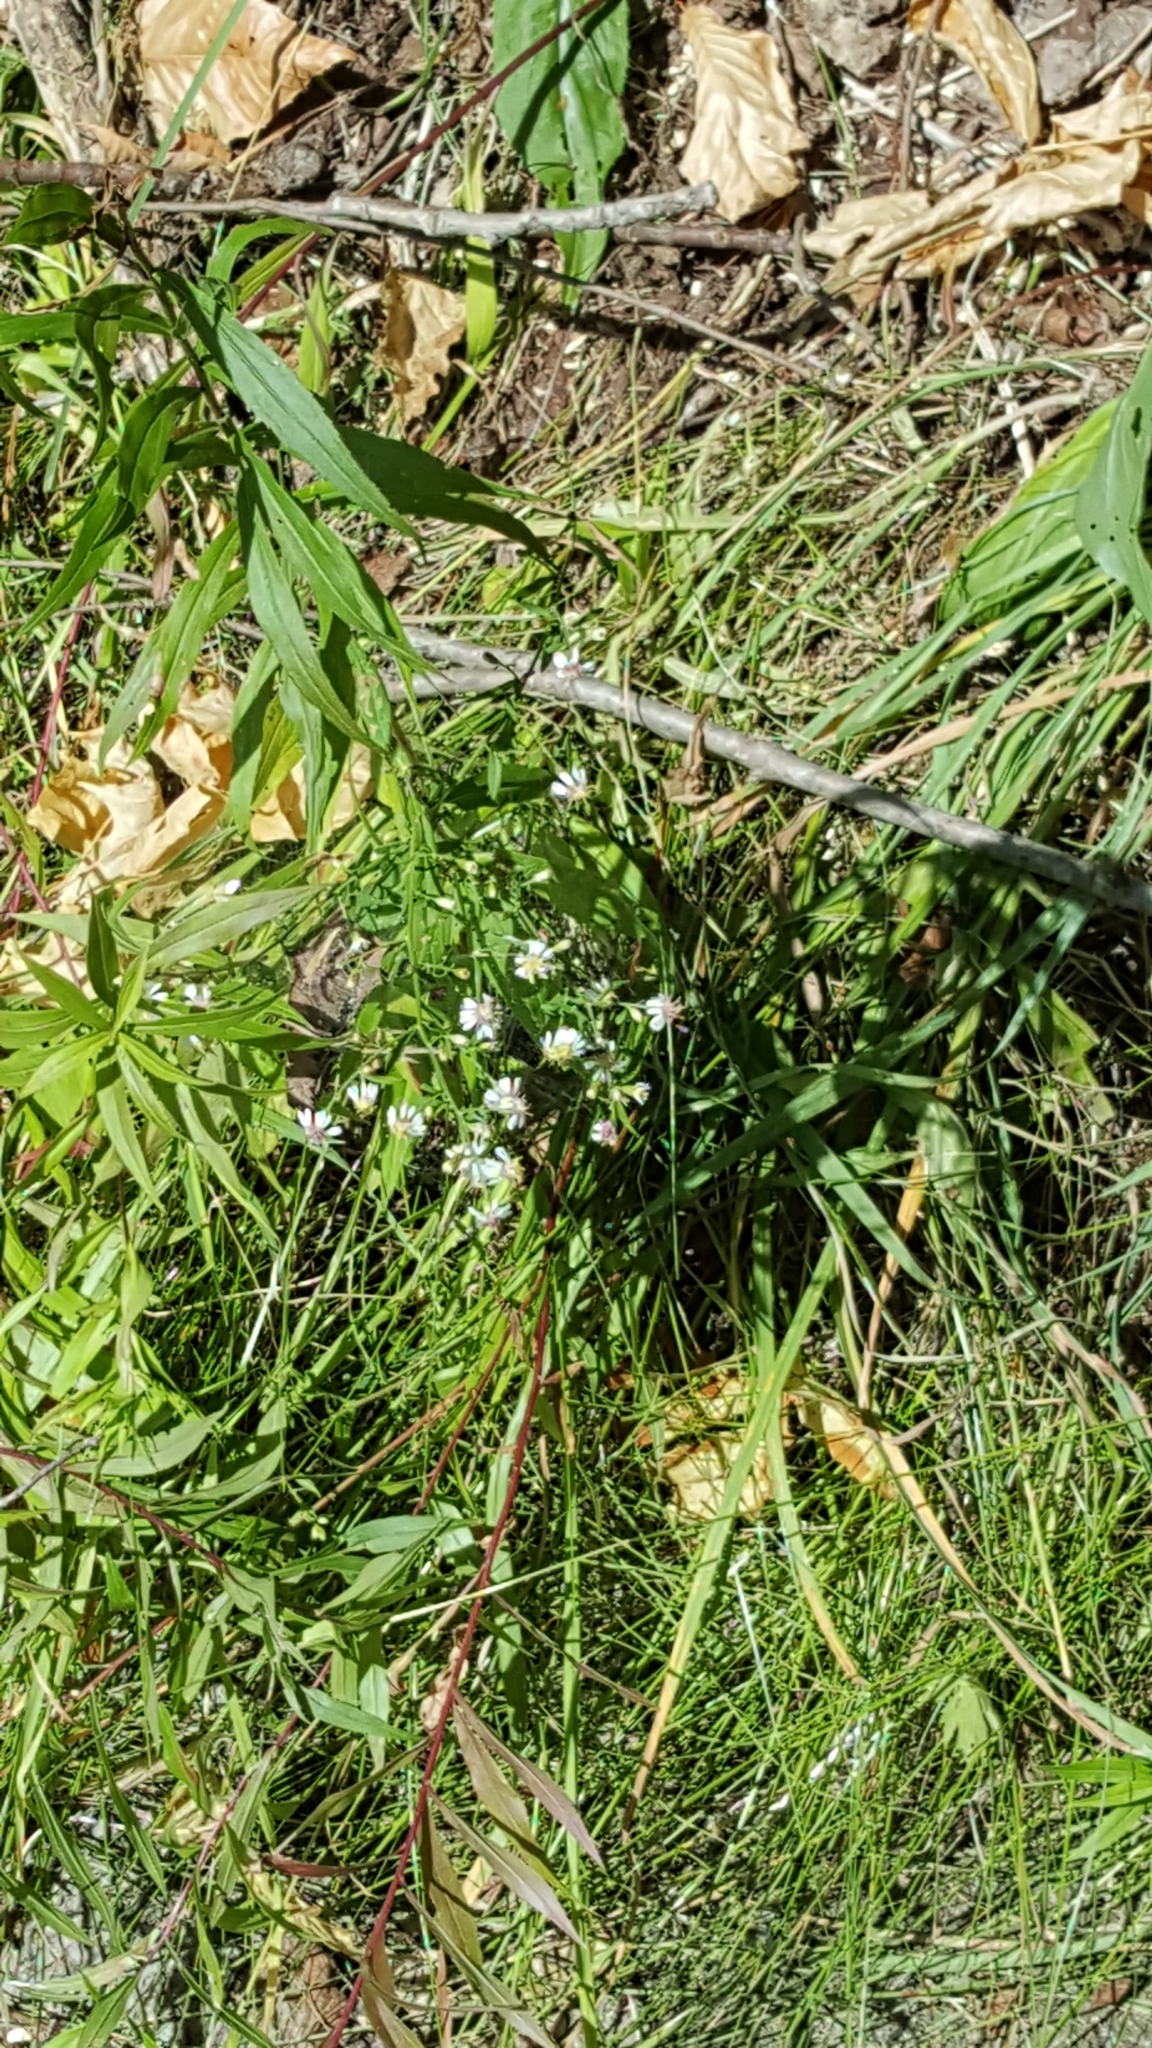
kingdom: Plantae
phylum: Tracheophyta
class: Magnoliopsida
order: Asterales
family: Asteraceae
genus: Symphyotrichum
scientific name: Symphyotrichum lateriflorum
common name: Calico aster
